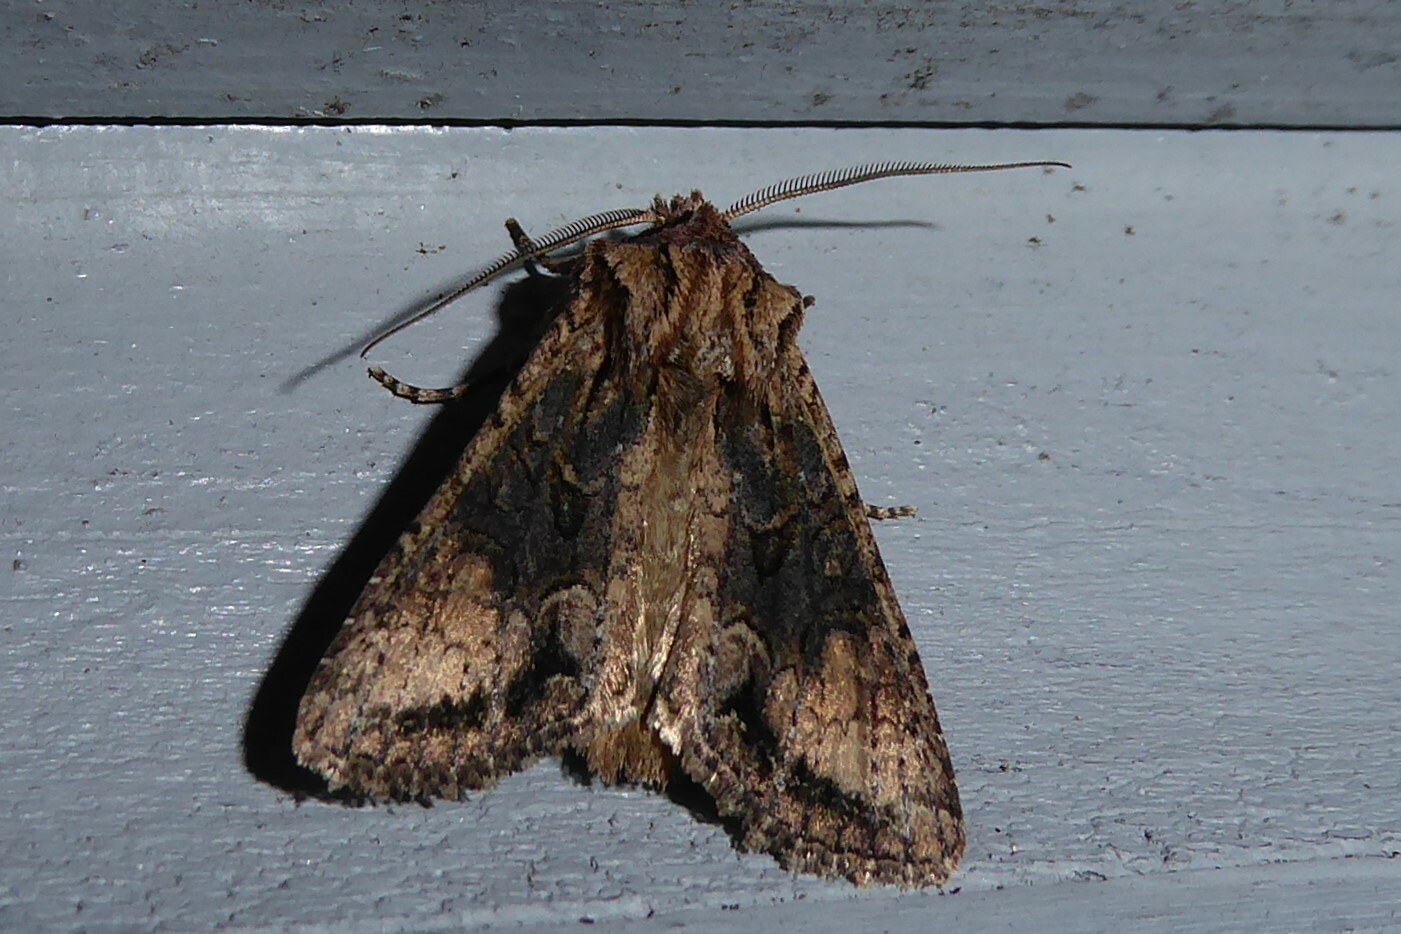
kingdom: Animalia
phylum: Arthropoda
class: Insecta
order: Lepidoptera
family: Noctuidae
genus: Ichneutica
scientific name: Ichneutica mutans
